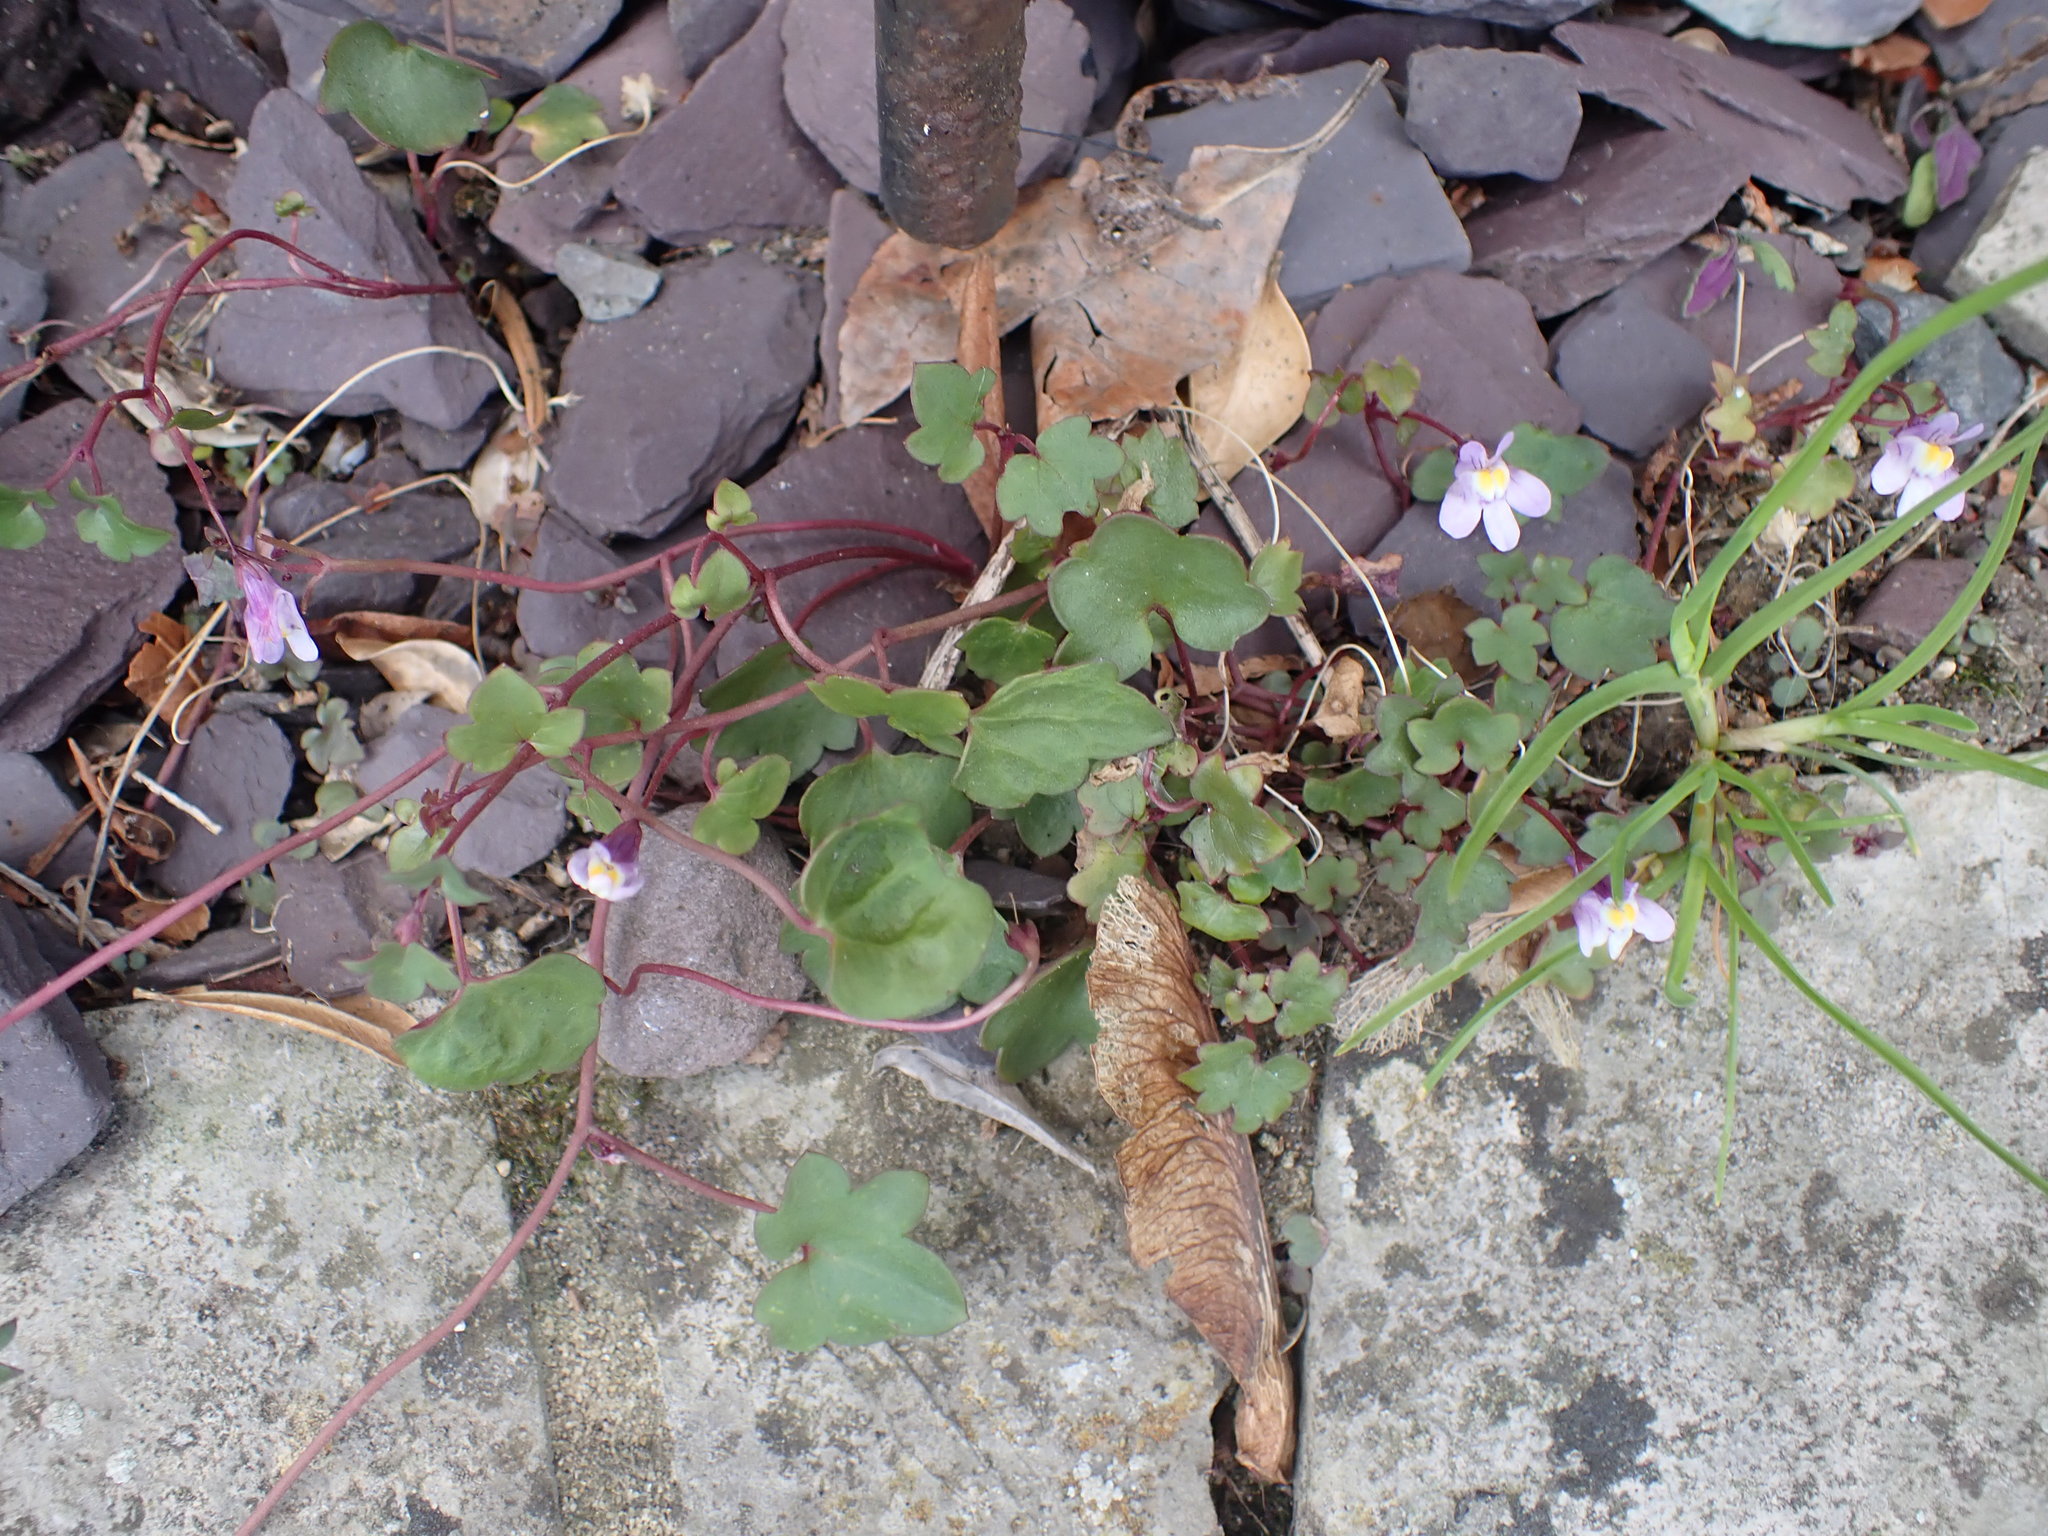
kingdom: Plantae
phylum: Tracheophyta
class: Magnoliopsida
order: Lamiales
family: Plantaginaceae
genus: Cymbalaria
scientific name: Cymbalaria muralis
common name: Ivy-leaved toadflax
